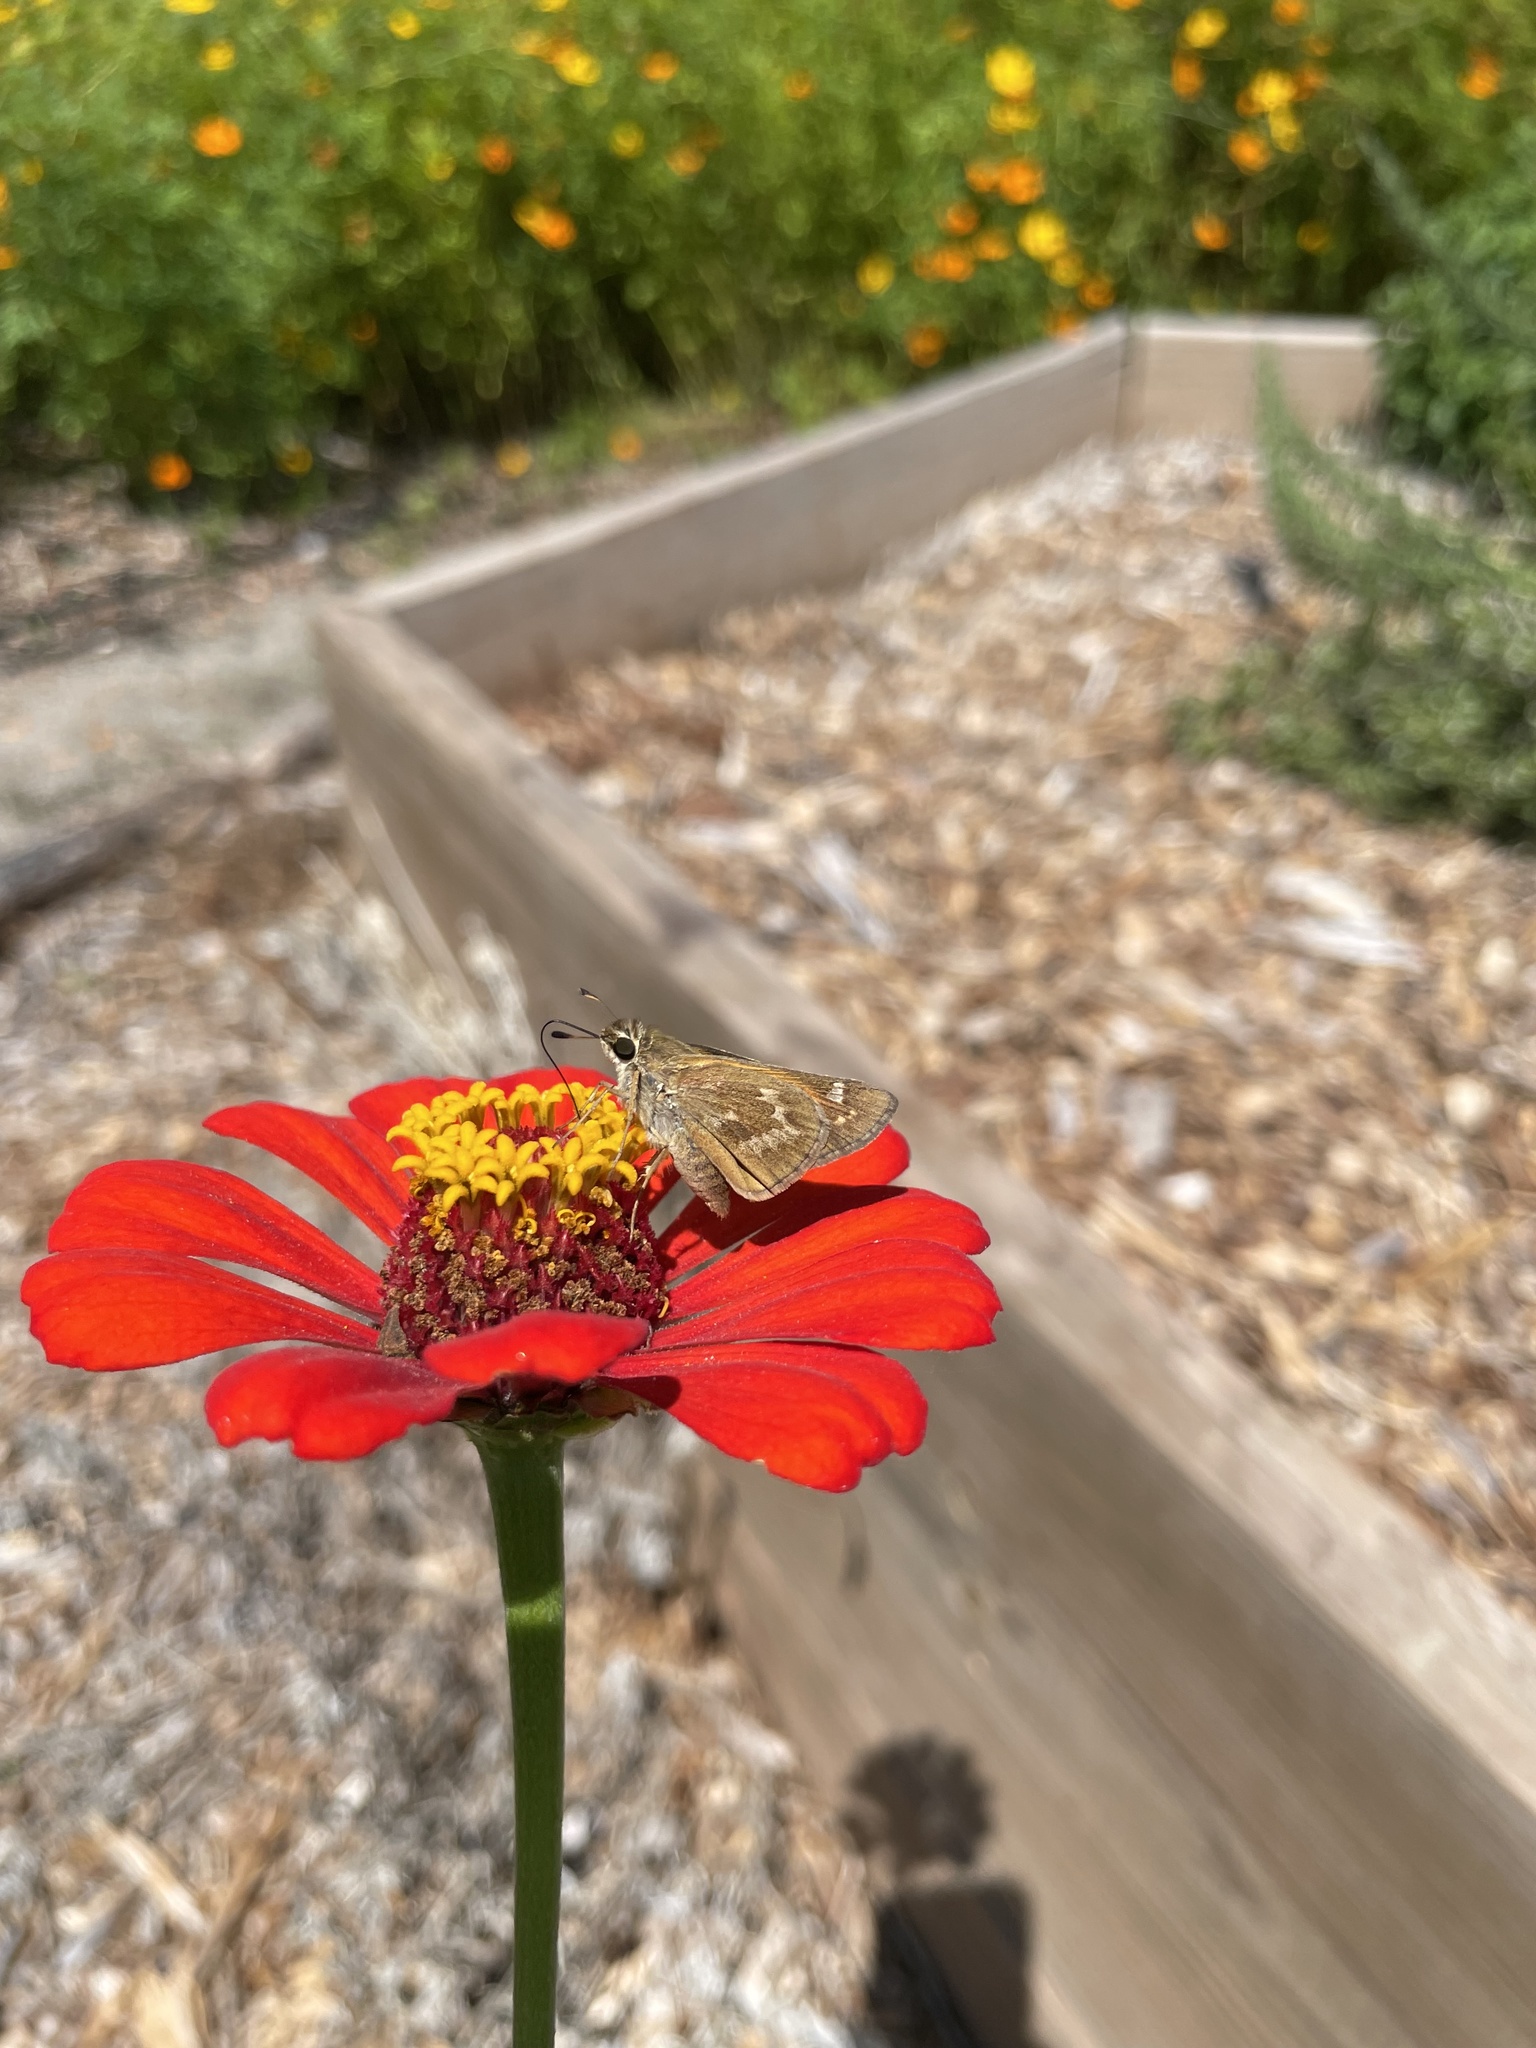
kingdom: Animalia
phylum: Arthropoda
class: Insecta
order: Lepidoptera
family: Hesperiidae
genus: Atalopedes
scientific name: Atalopedes
